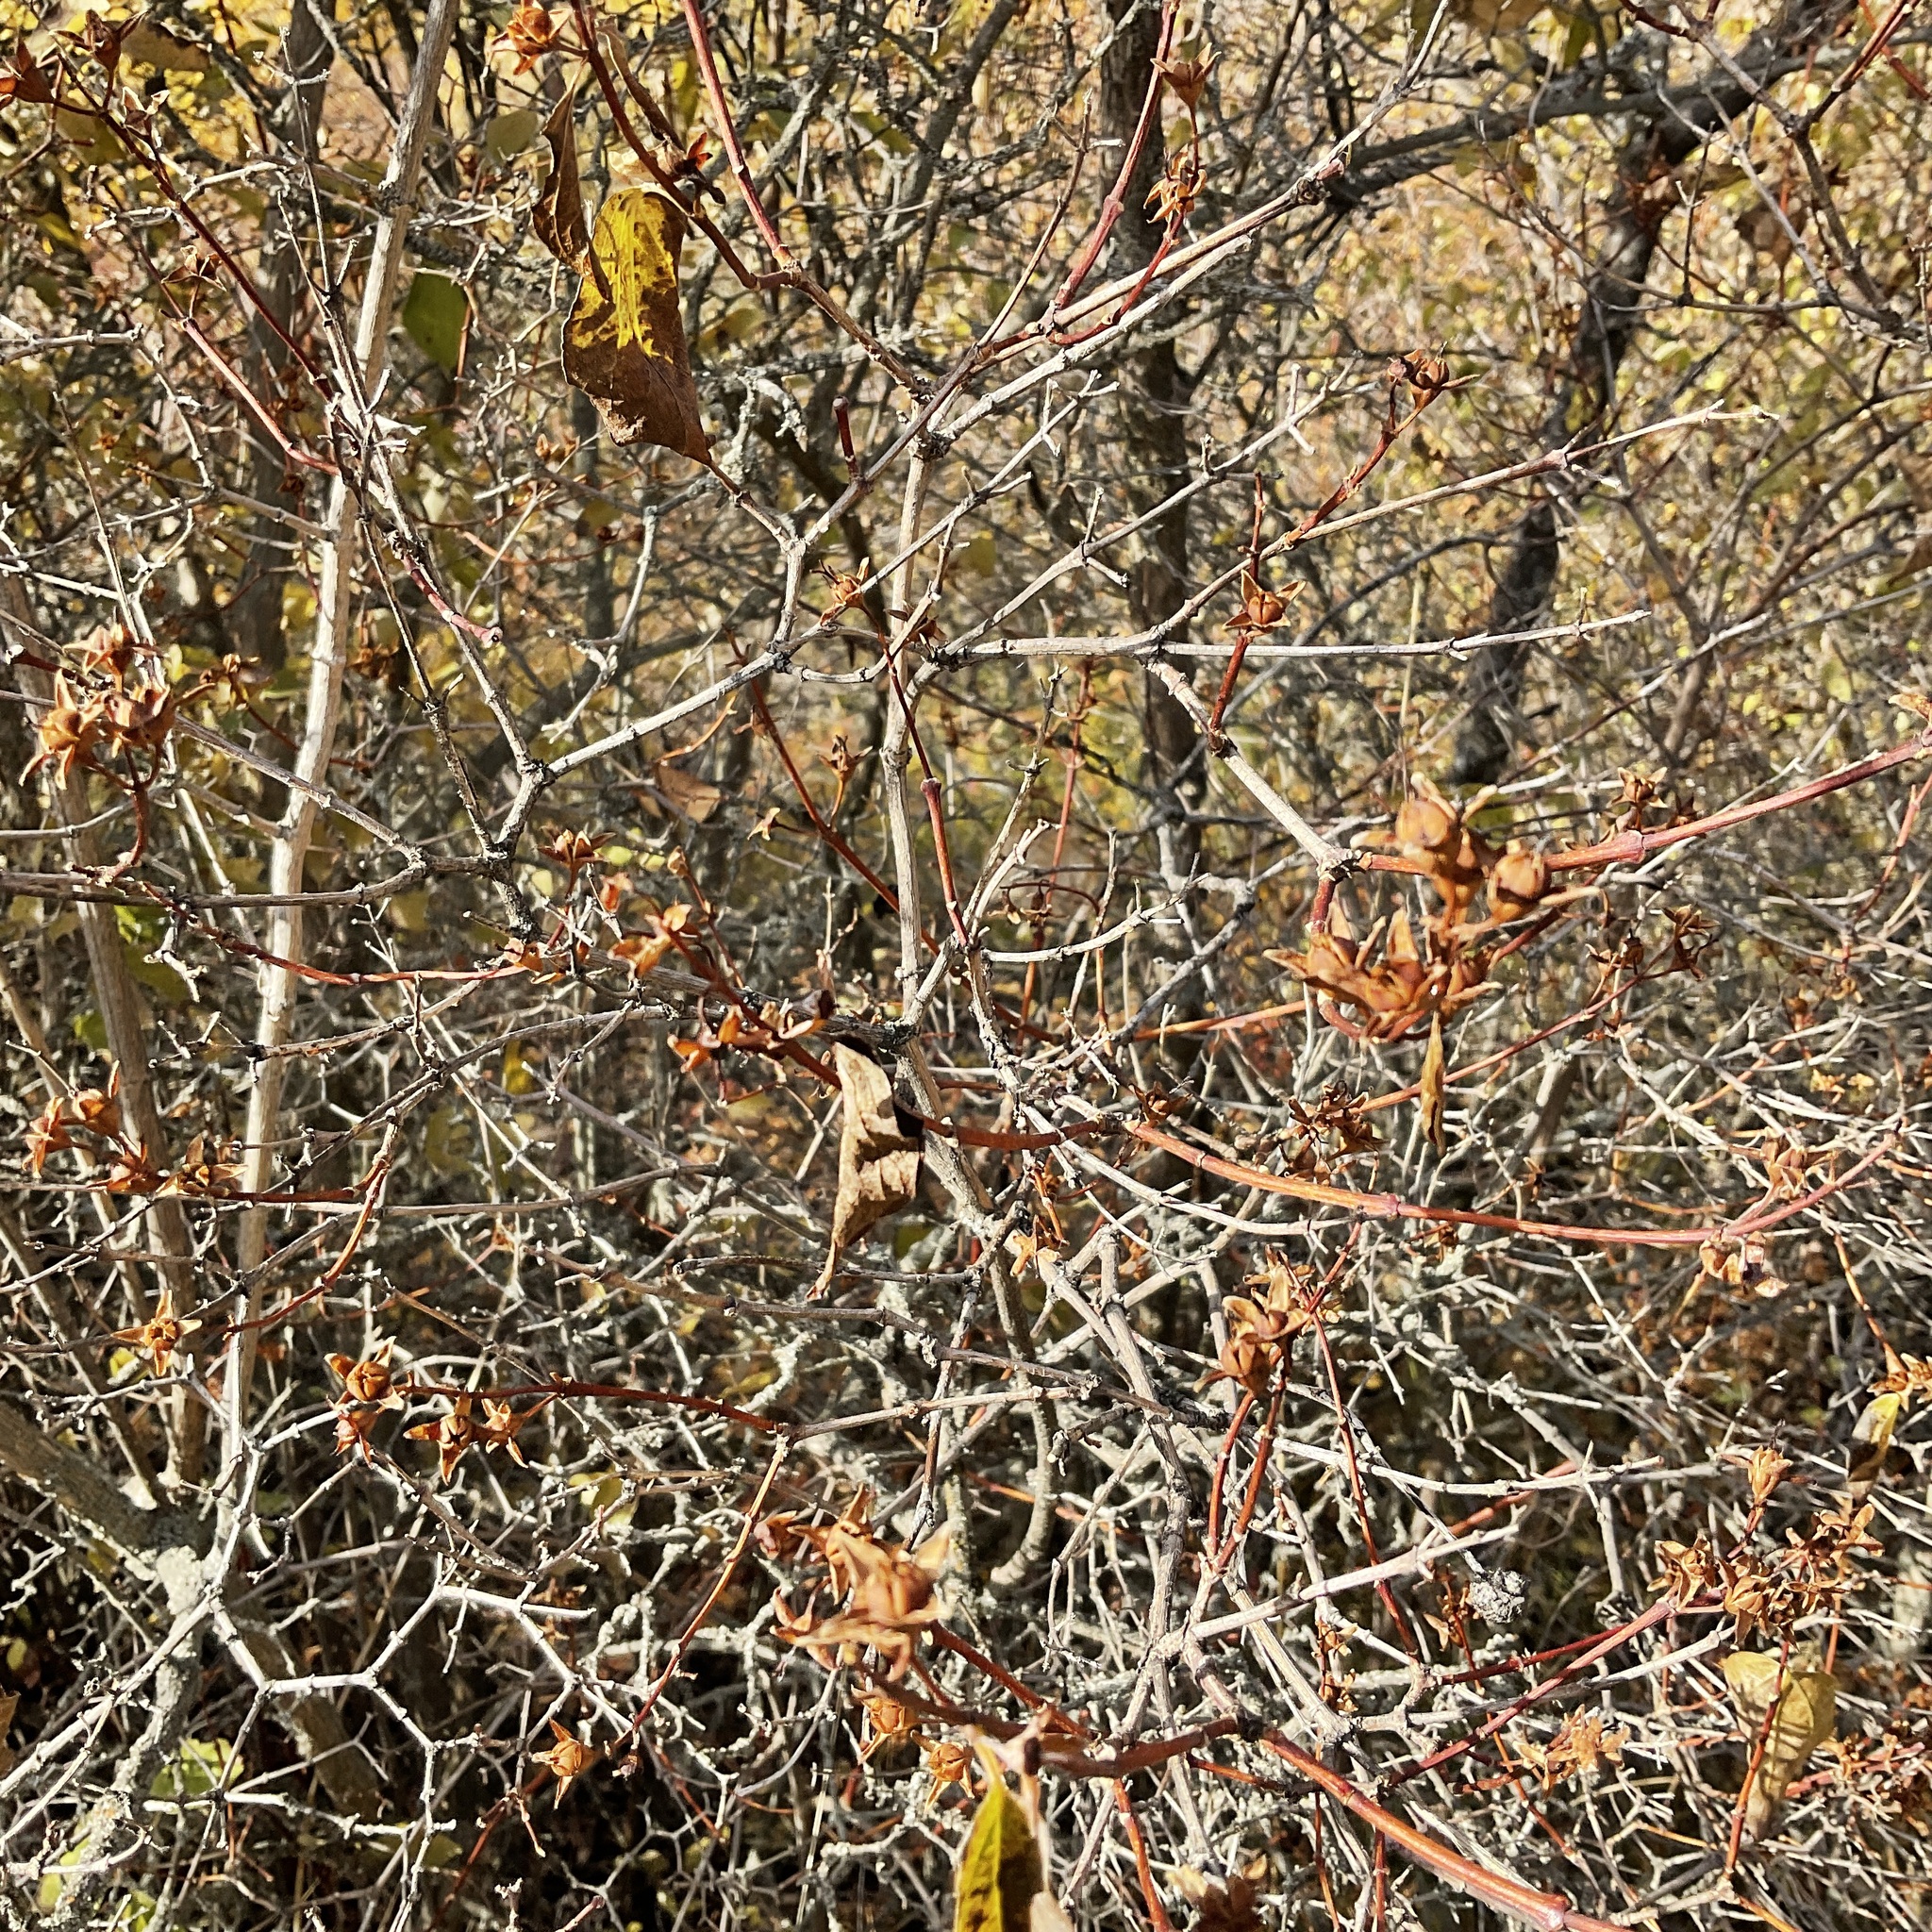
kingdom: Plantae
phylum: Tracheophyta
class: Magnoliopsida
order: Cornales
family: Hydrangeaceae
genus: Philadelphus
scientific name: Philadelphus lewisii
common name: Lewis's mock orange
